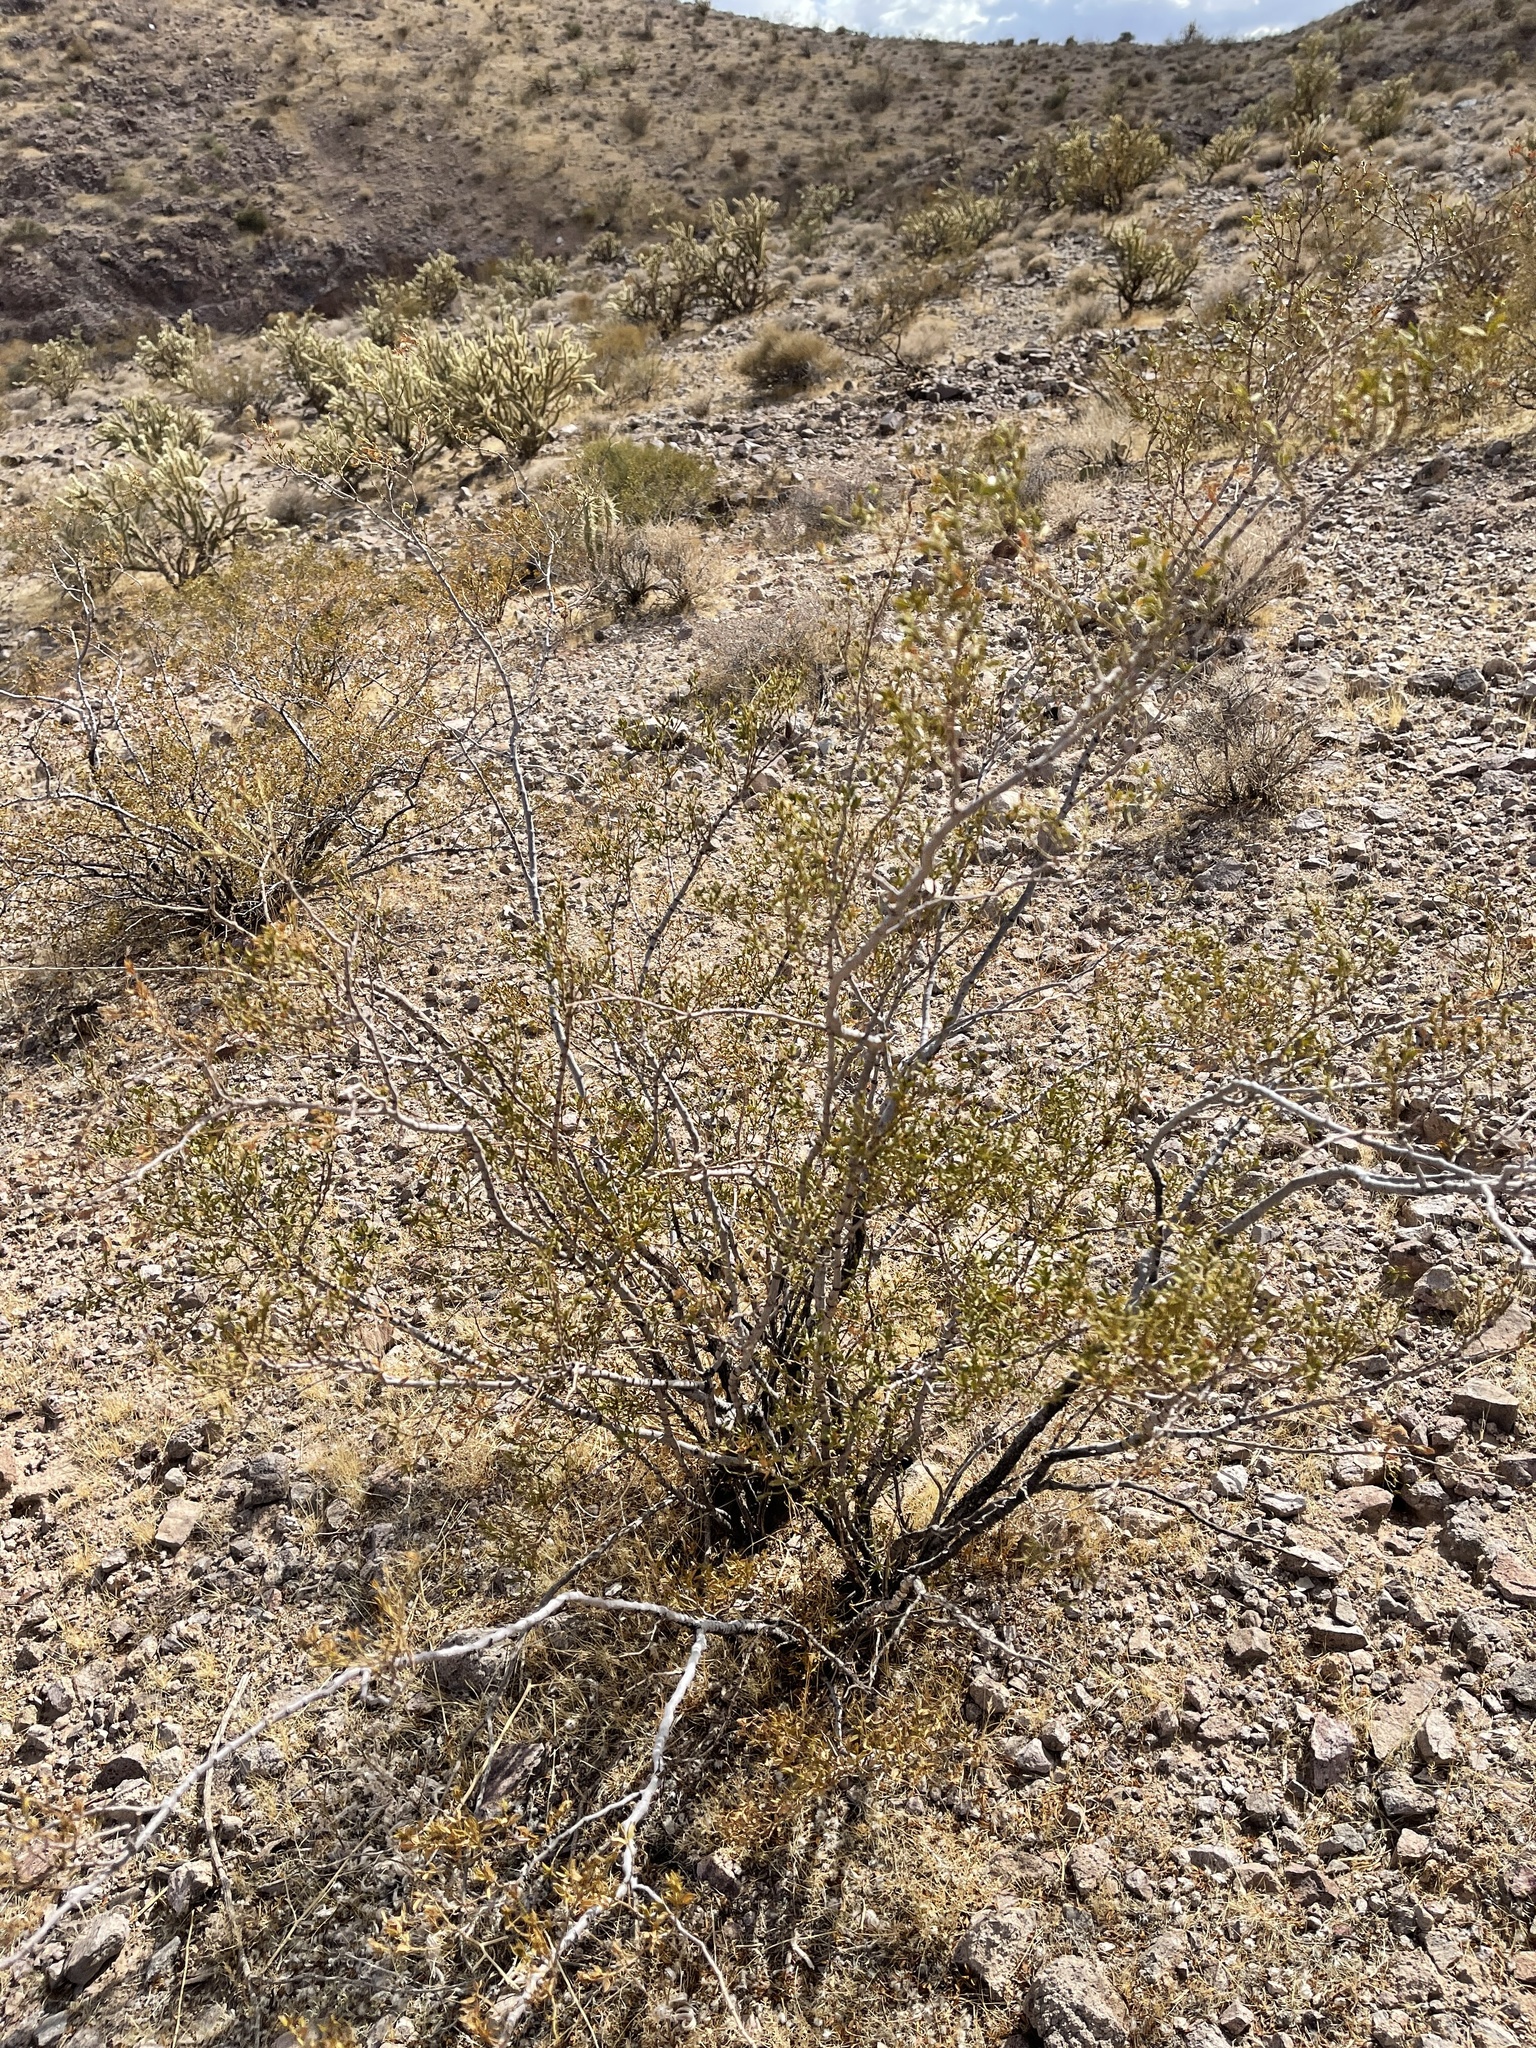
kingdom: Plantae
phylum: Tracheophyta
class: Magnoliopsida
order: Zygophyllales
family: Zygophyllaceae
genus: Larrea
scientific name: Larrea tridentata
